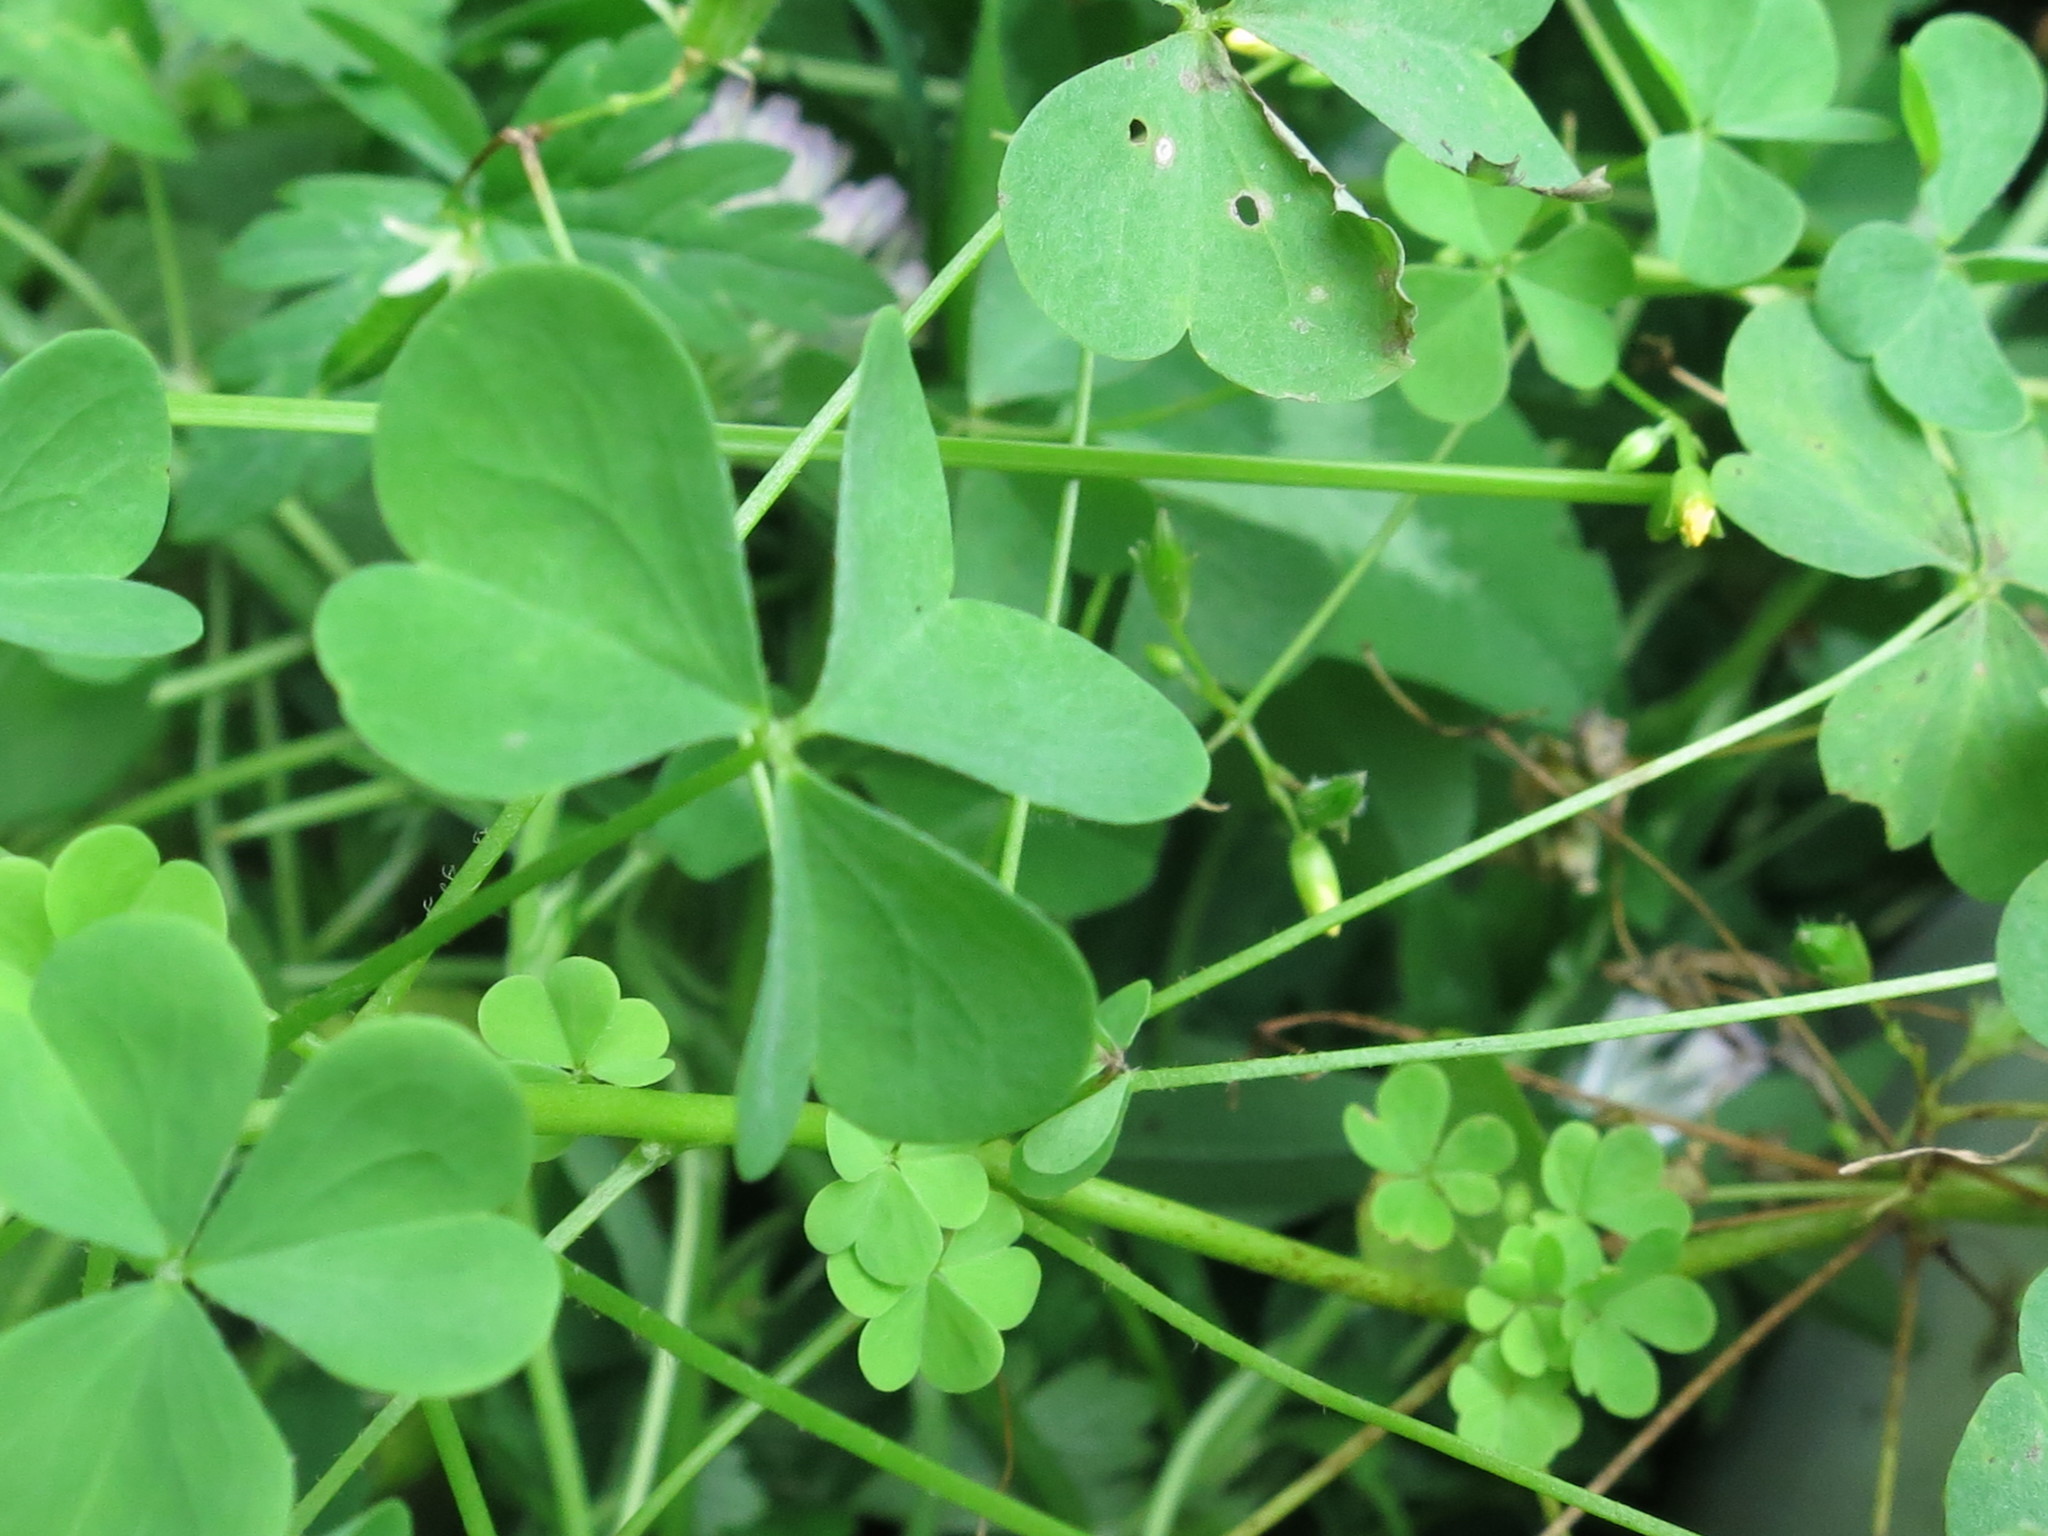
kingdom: Plantae
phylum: Tracheophyta
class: Magnoliopsida
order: Oxalidales
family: Oxalidaceae
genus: Oxalis
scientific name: Oxalis stricta
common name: Upright yellow-sorrel
